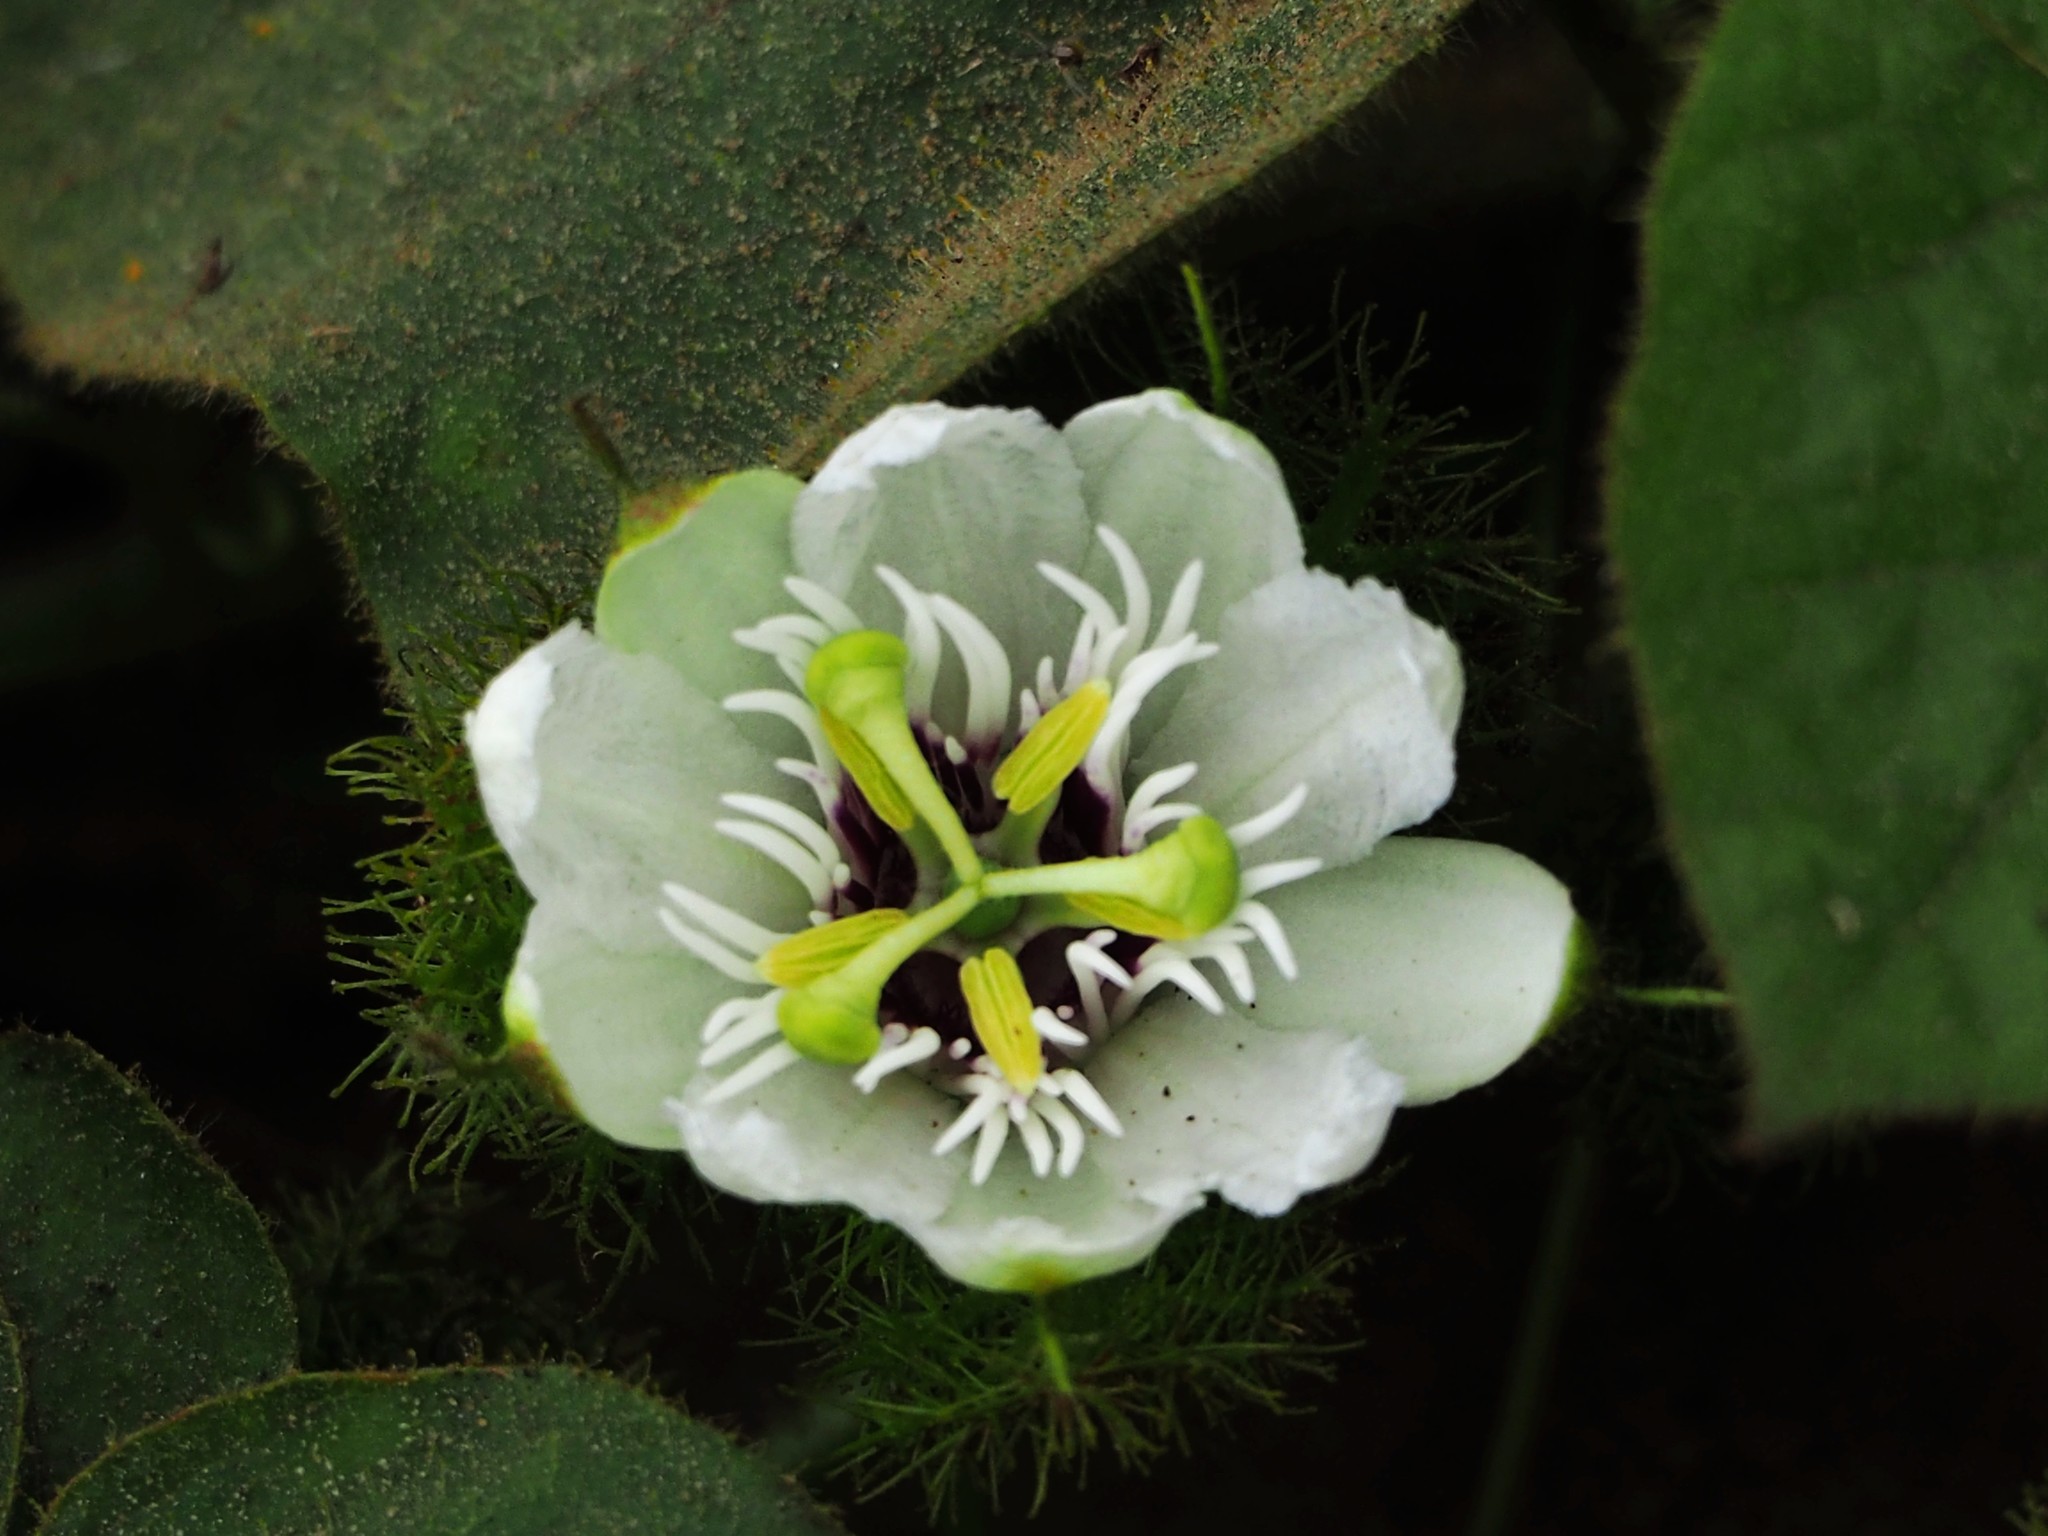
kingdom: Plantae
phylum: Tracheophyta
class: Magnoliopsida
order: Malpighiales
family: Passifloraceae
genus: Passiflora
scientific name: Passiflora vesicaria
